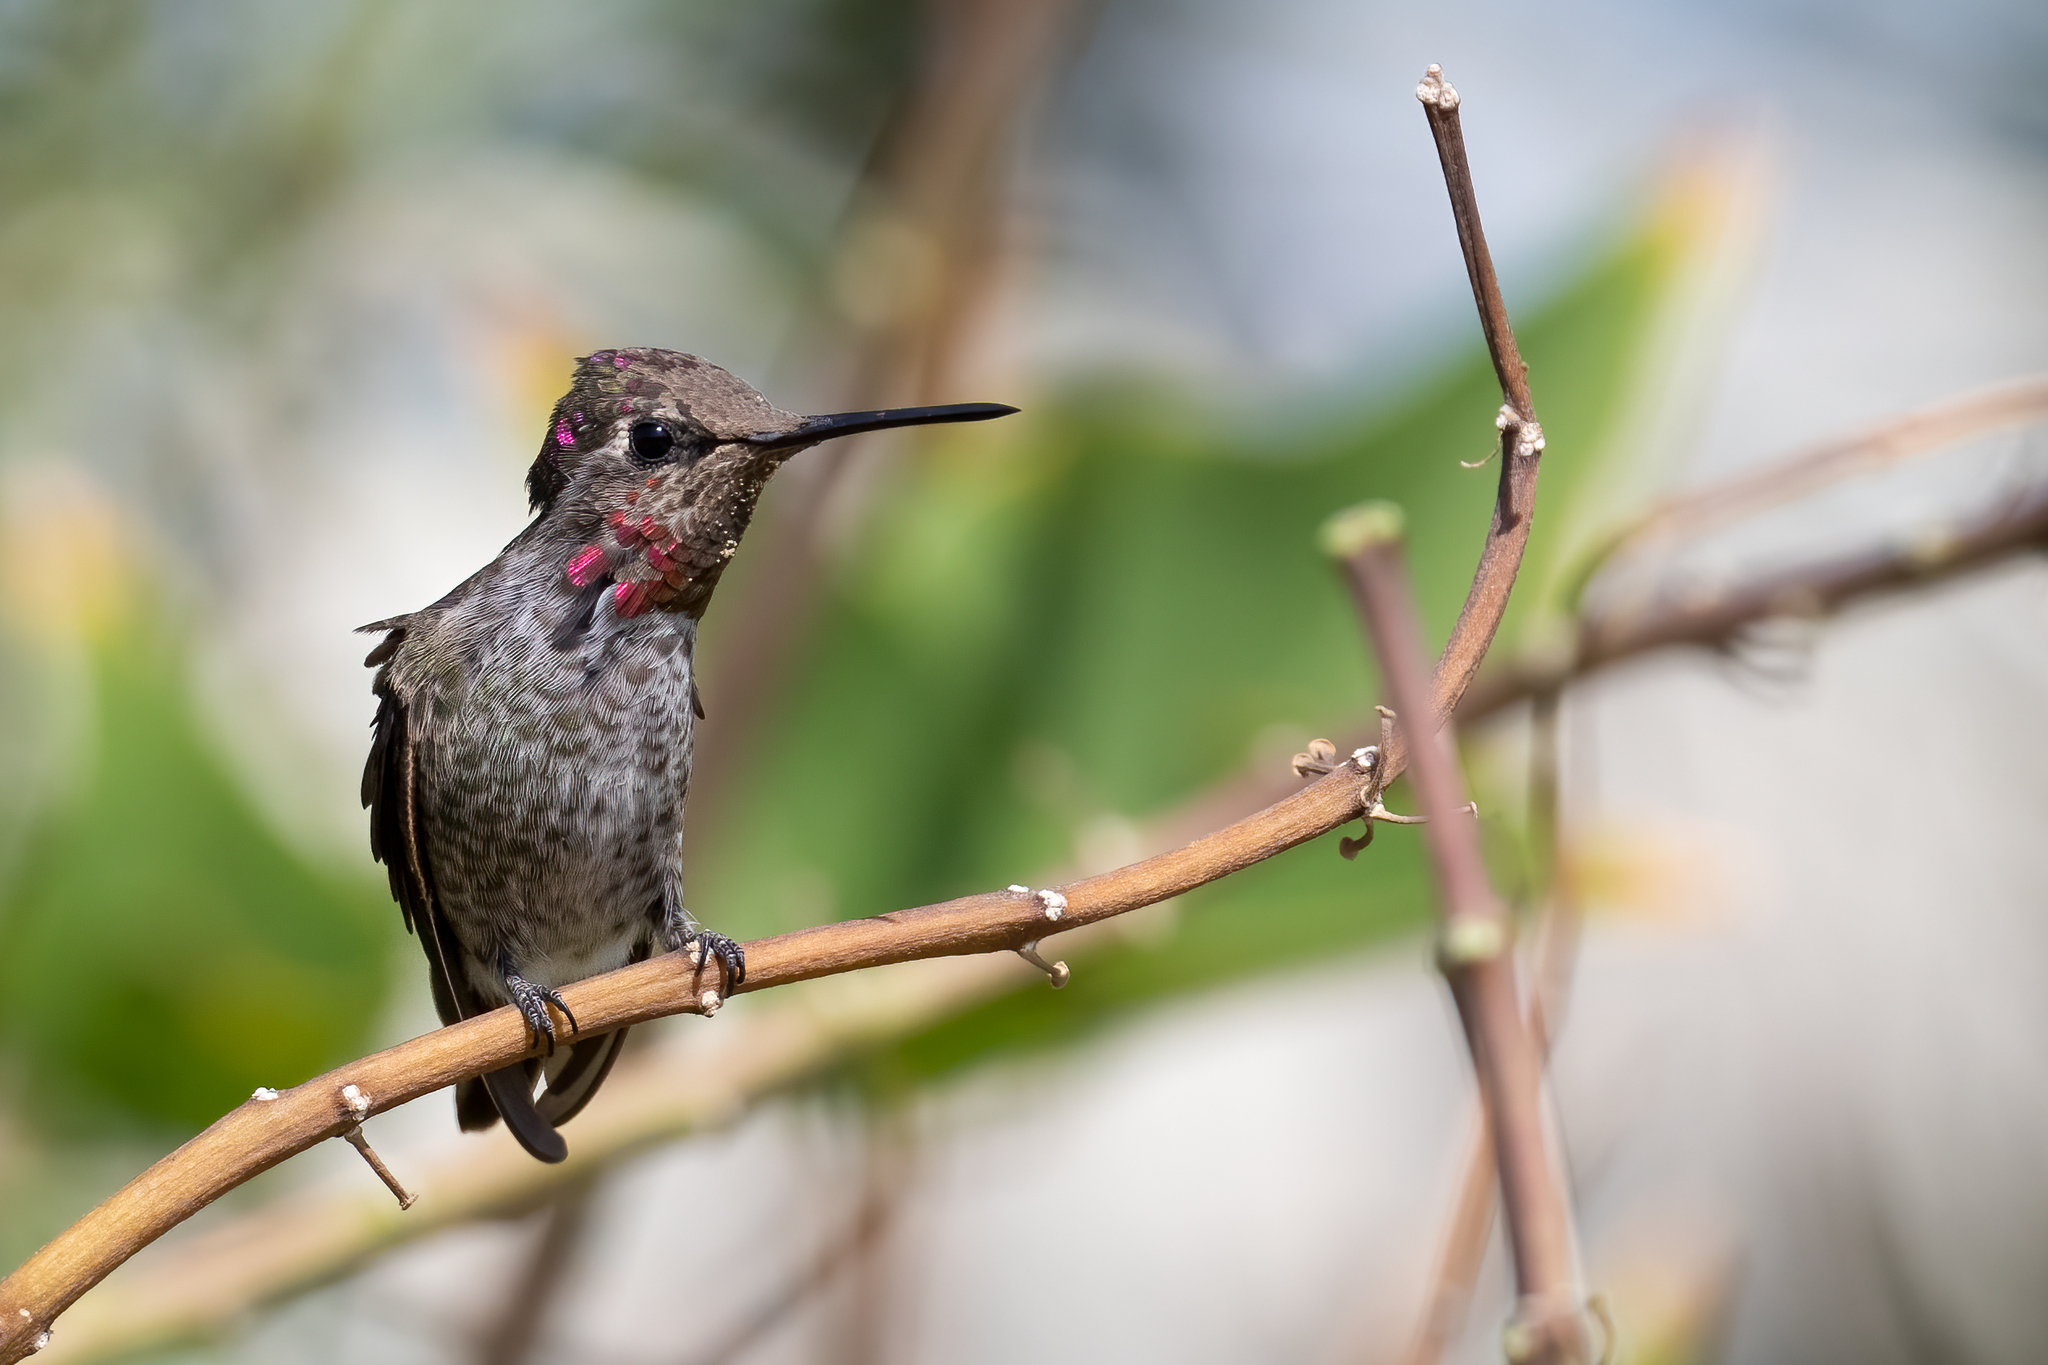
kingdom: Animalia
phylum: Chordata
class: Aves
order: Apodiformes
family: Trochilidae
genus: Calypte
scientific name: Calypte anna
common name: Anna's hummingbird
